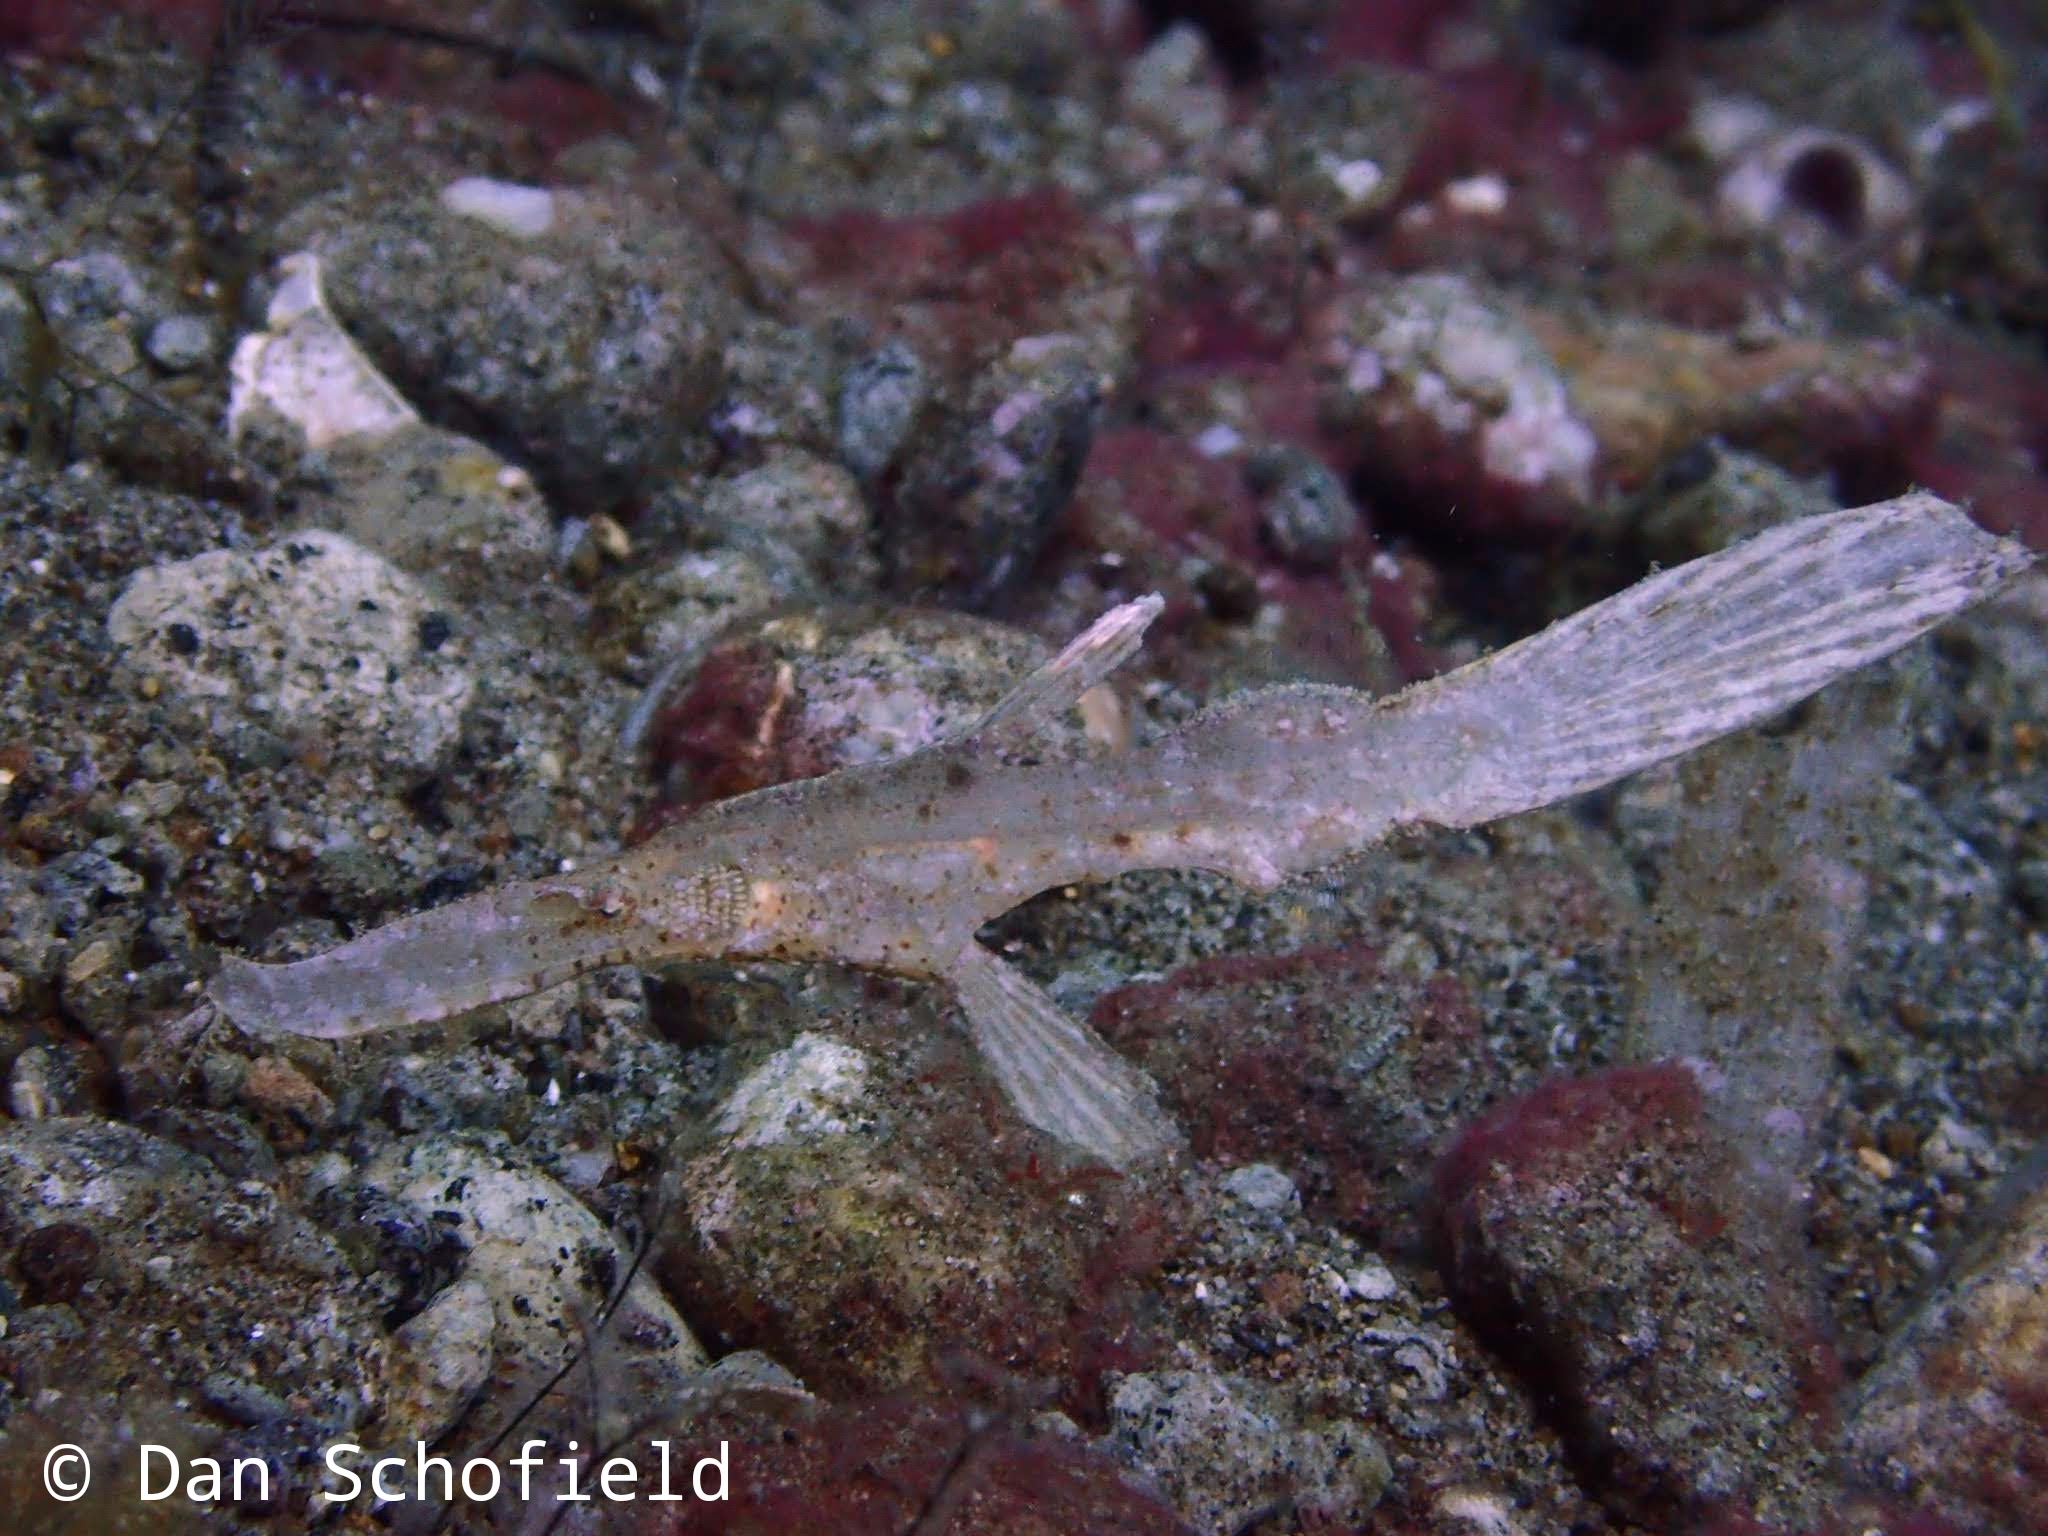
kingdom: Animalia
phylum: Chordata
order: Syngnathiformes
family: Solenostomidae
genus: Solenostomus
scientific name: Solenostomus cyanopterus
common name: Blue-finned ghost pipefish
